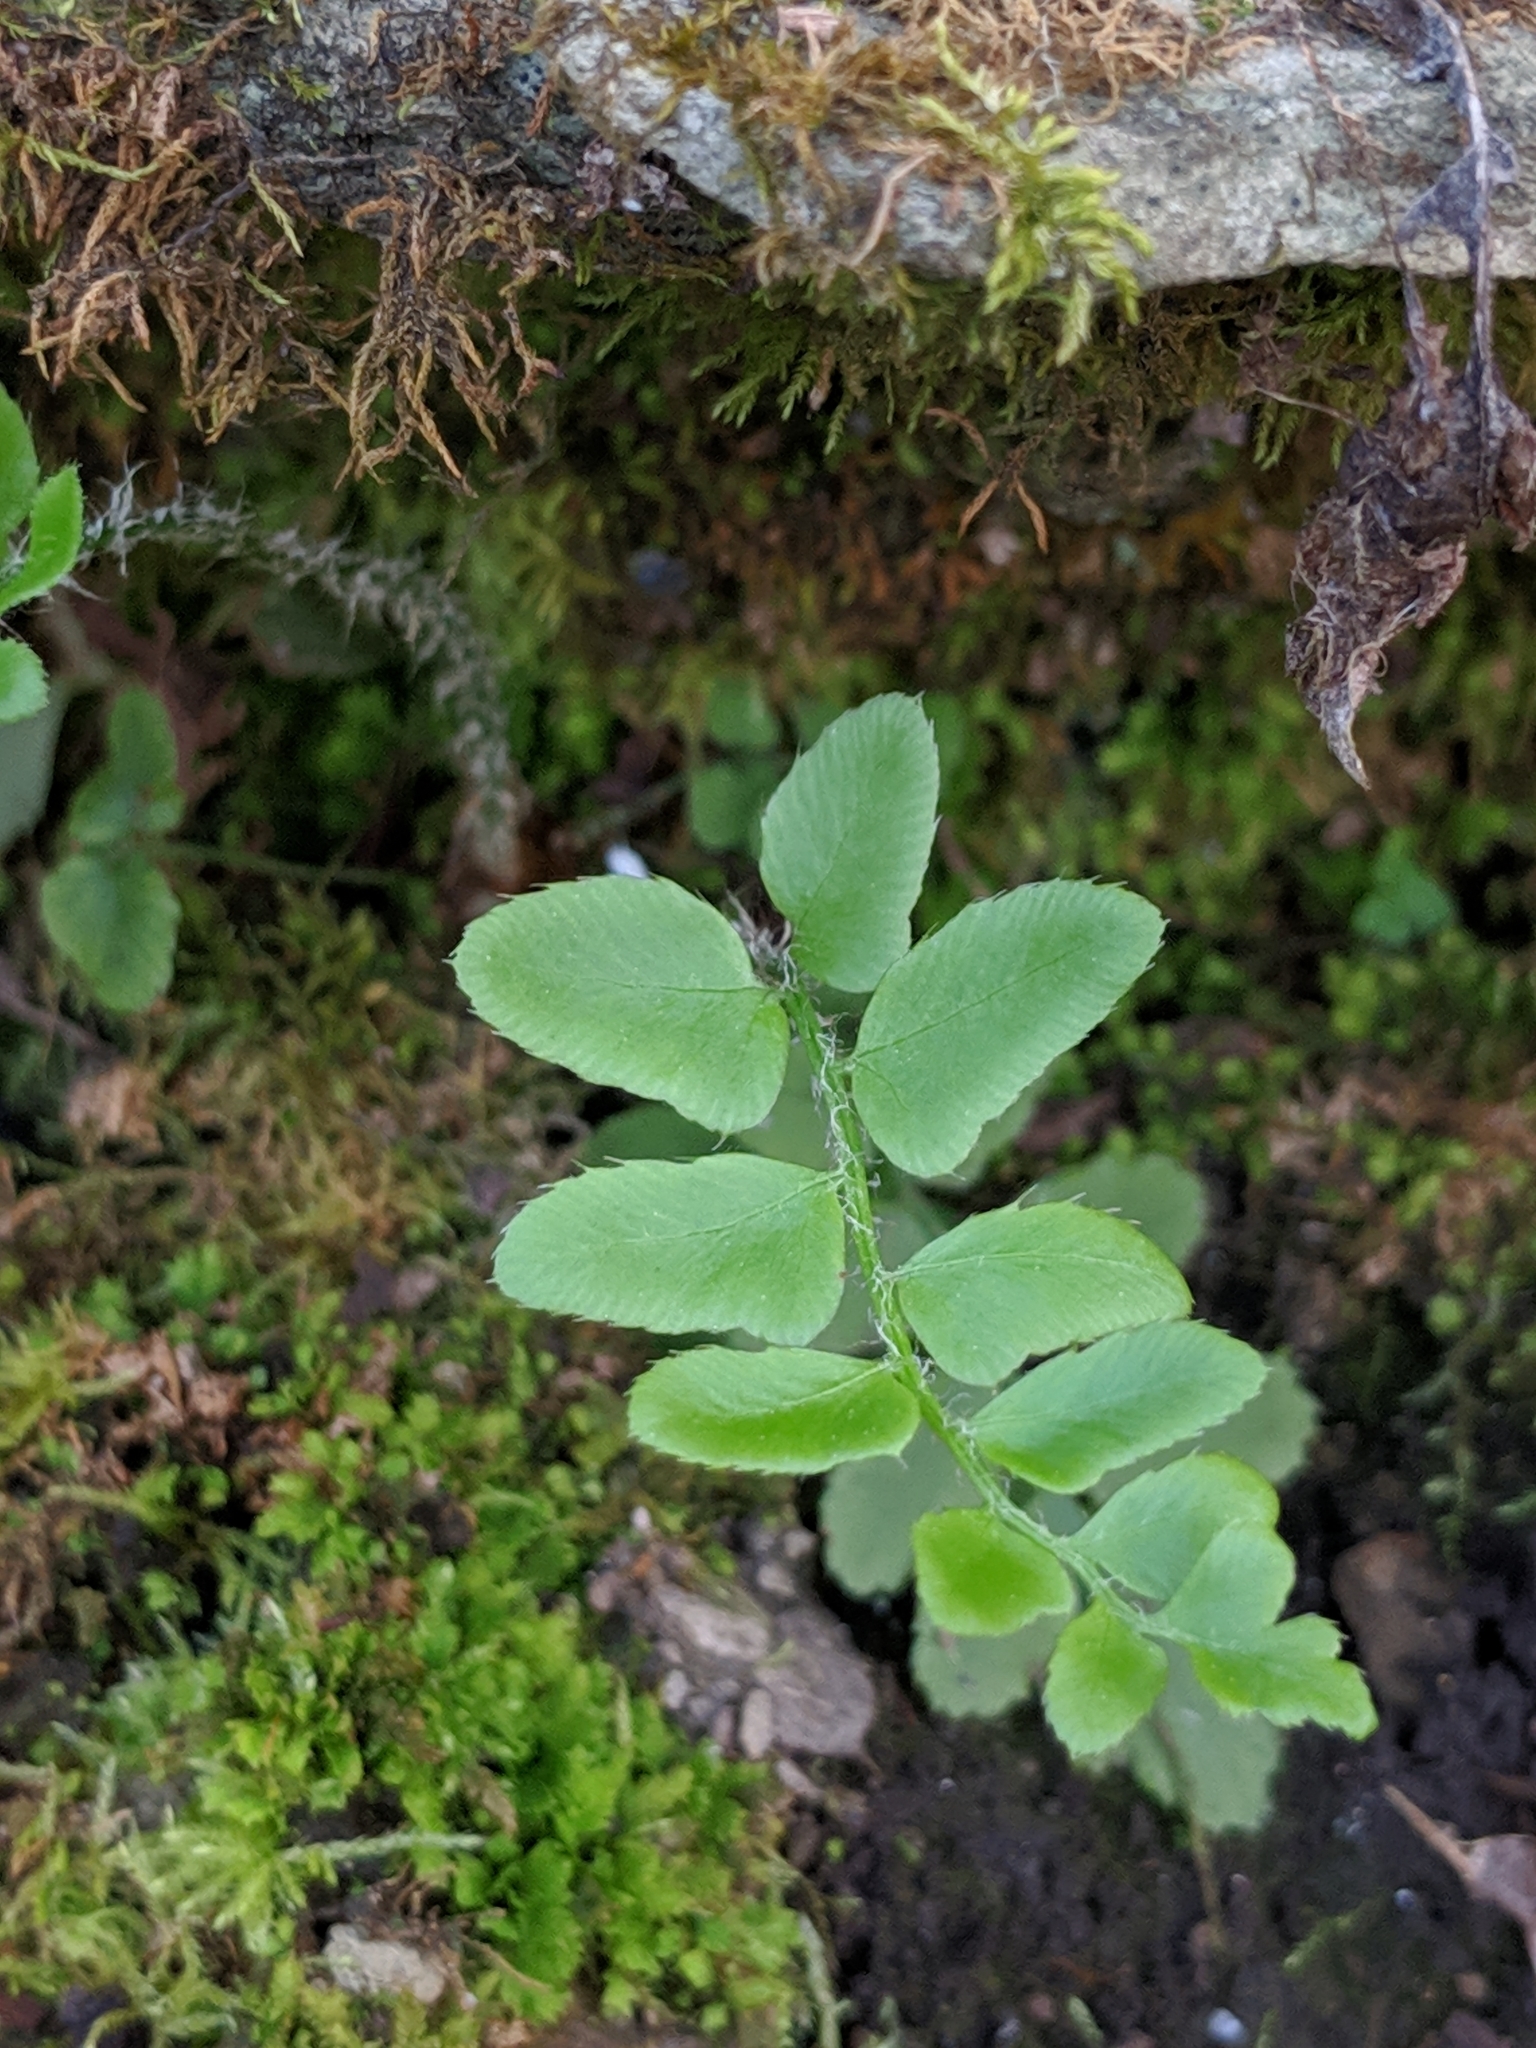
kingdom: Plantae
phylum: Tracheophyta
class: Polypodiopsida
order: Polypodiales
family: Dryopteridaceae
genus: Polystichum
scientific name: Polystichum acrostichoides
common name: Christmas fern
